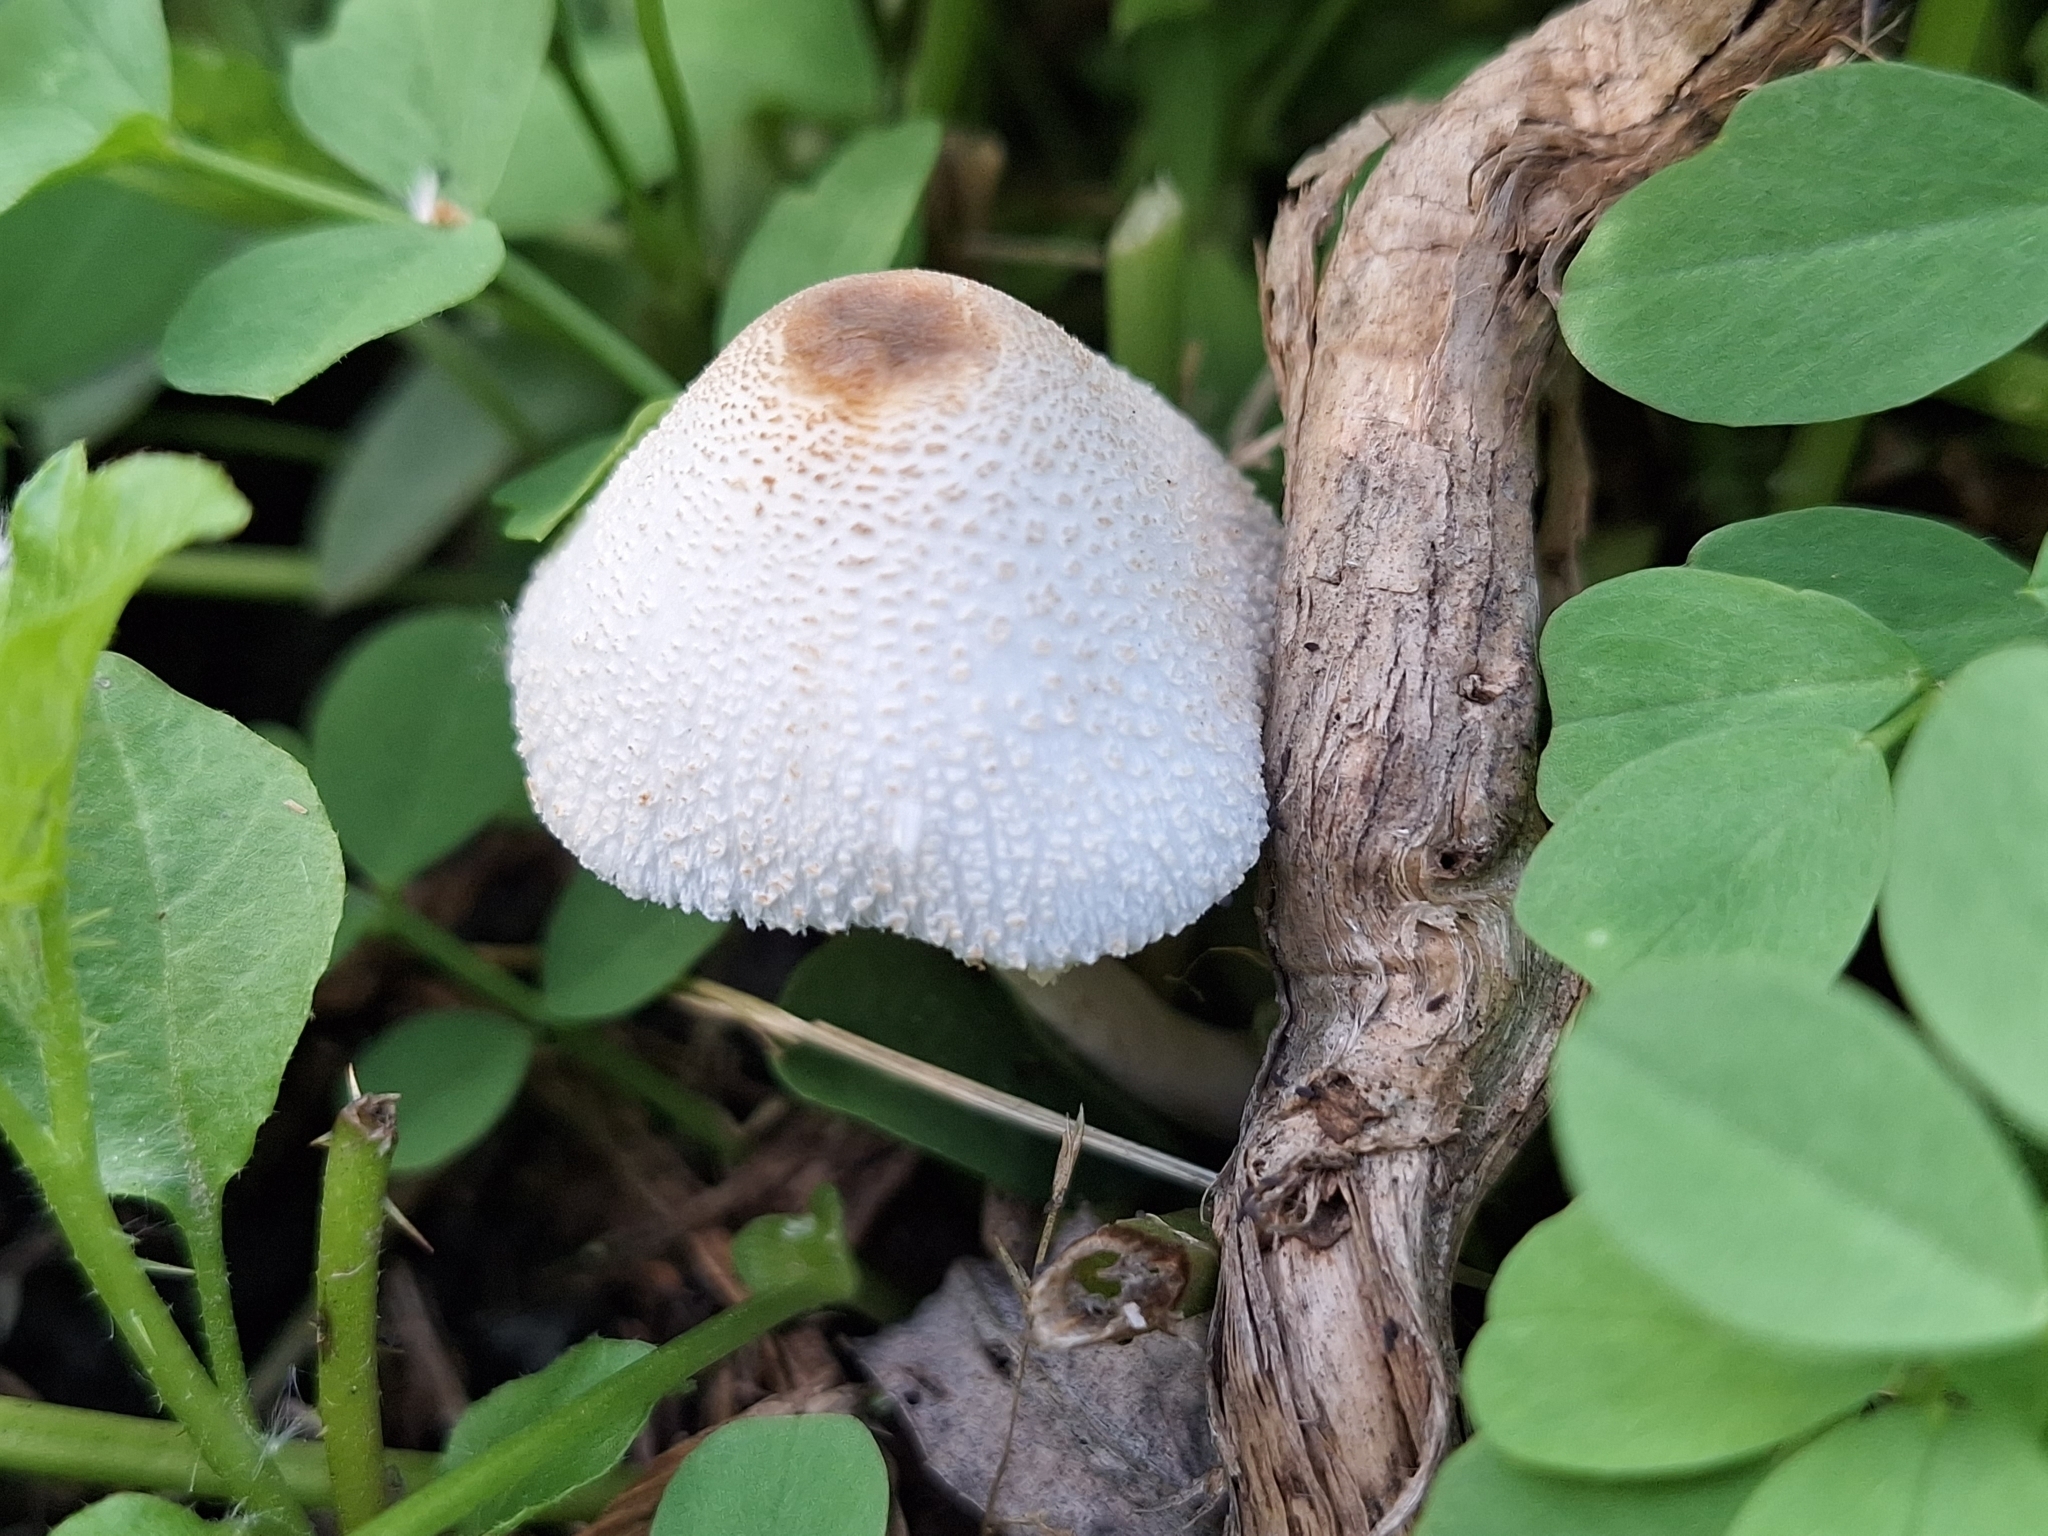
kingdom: Fungi
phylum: Basidiomycota
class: Agaricomycetes
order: Agaricales
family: Agaricaceae
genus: Leucocoprinus
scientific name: Leucocoprinus cepistipes
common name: Onion-stalk parasol
